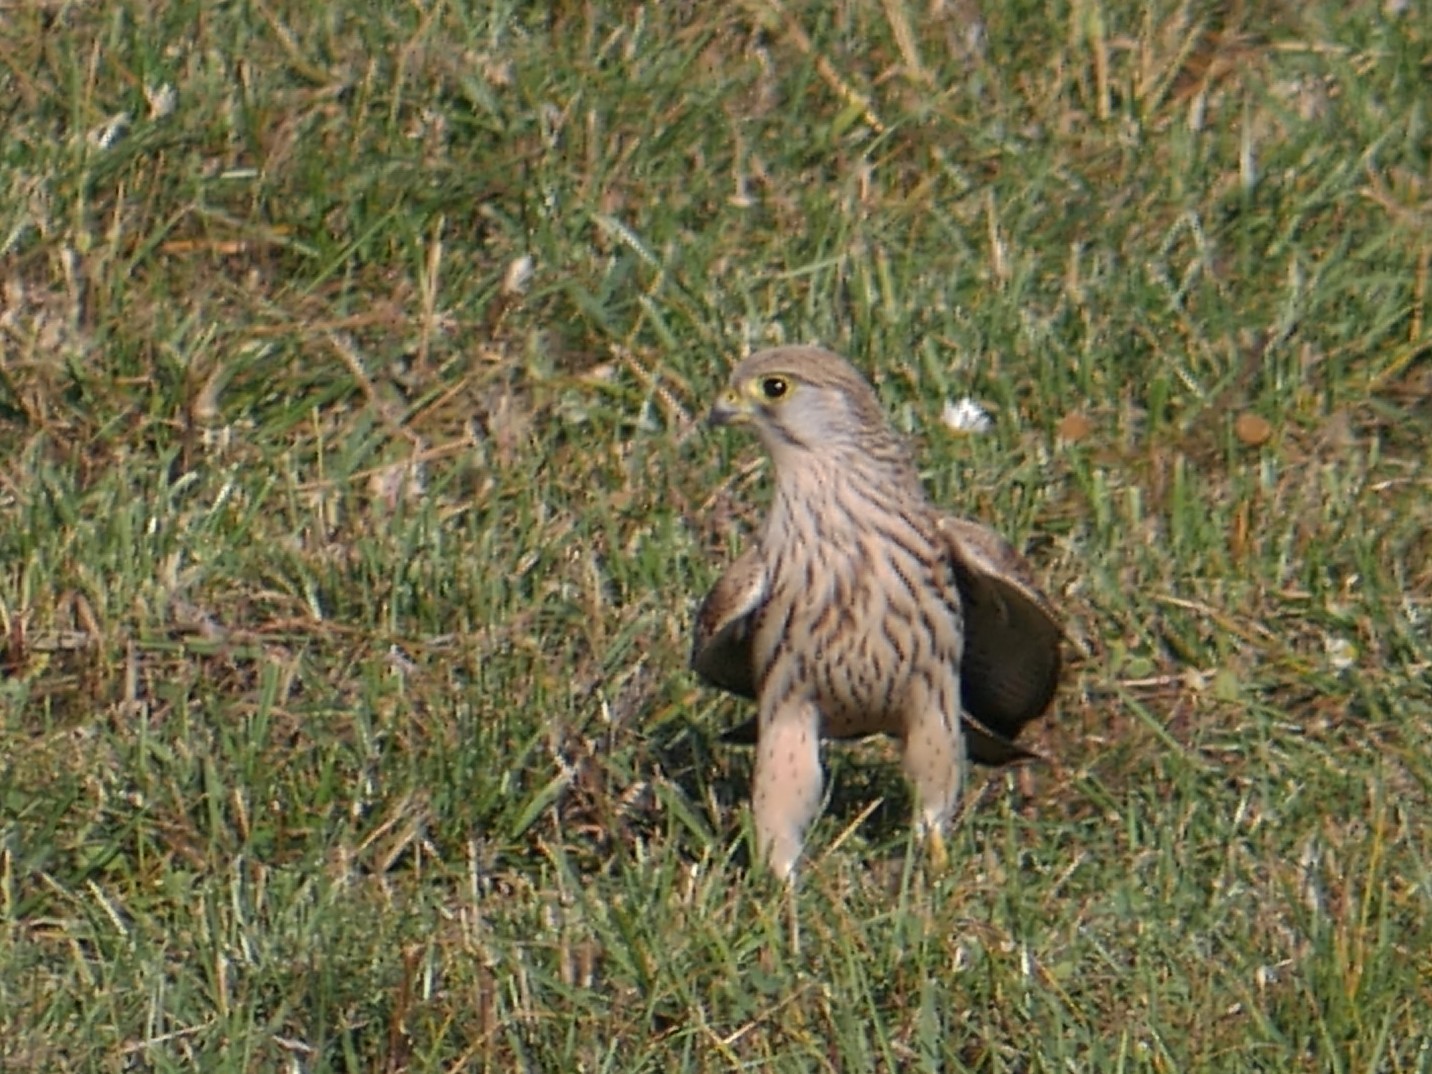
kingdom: Animalia
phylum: Chordata
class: Aves
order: Falconiformes
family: Falconidae
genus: Falco
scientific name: Falco tinnunculus
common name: Common kestrel
